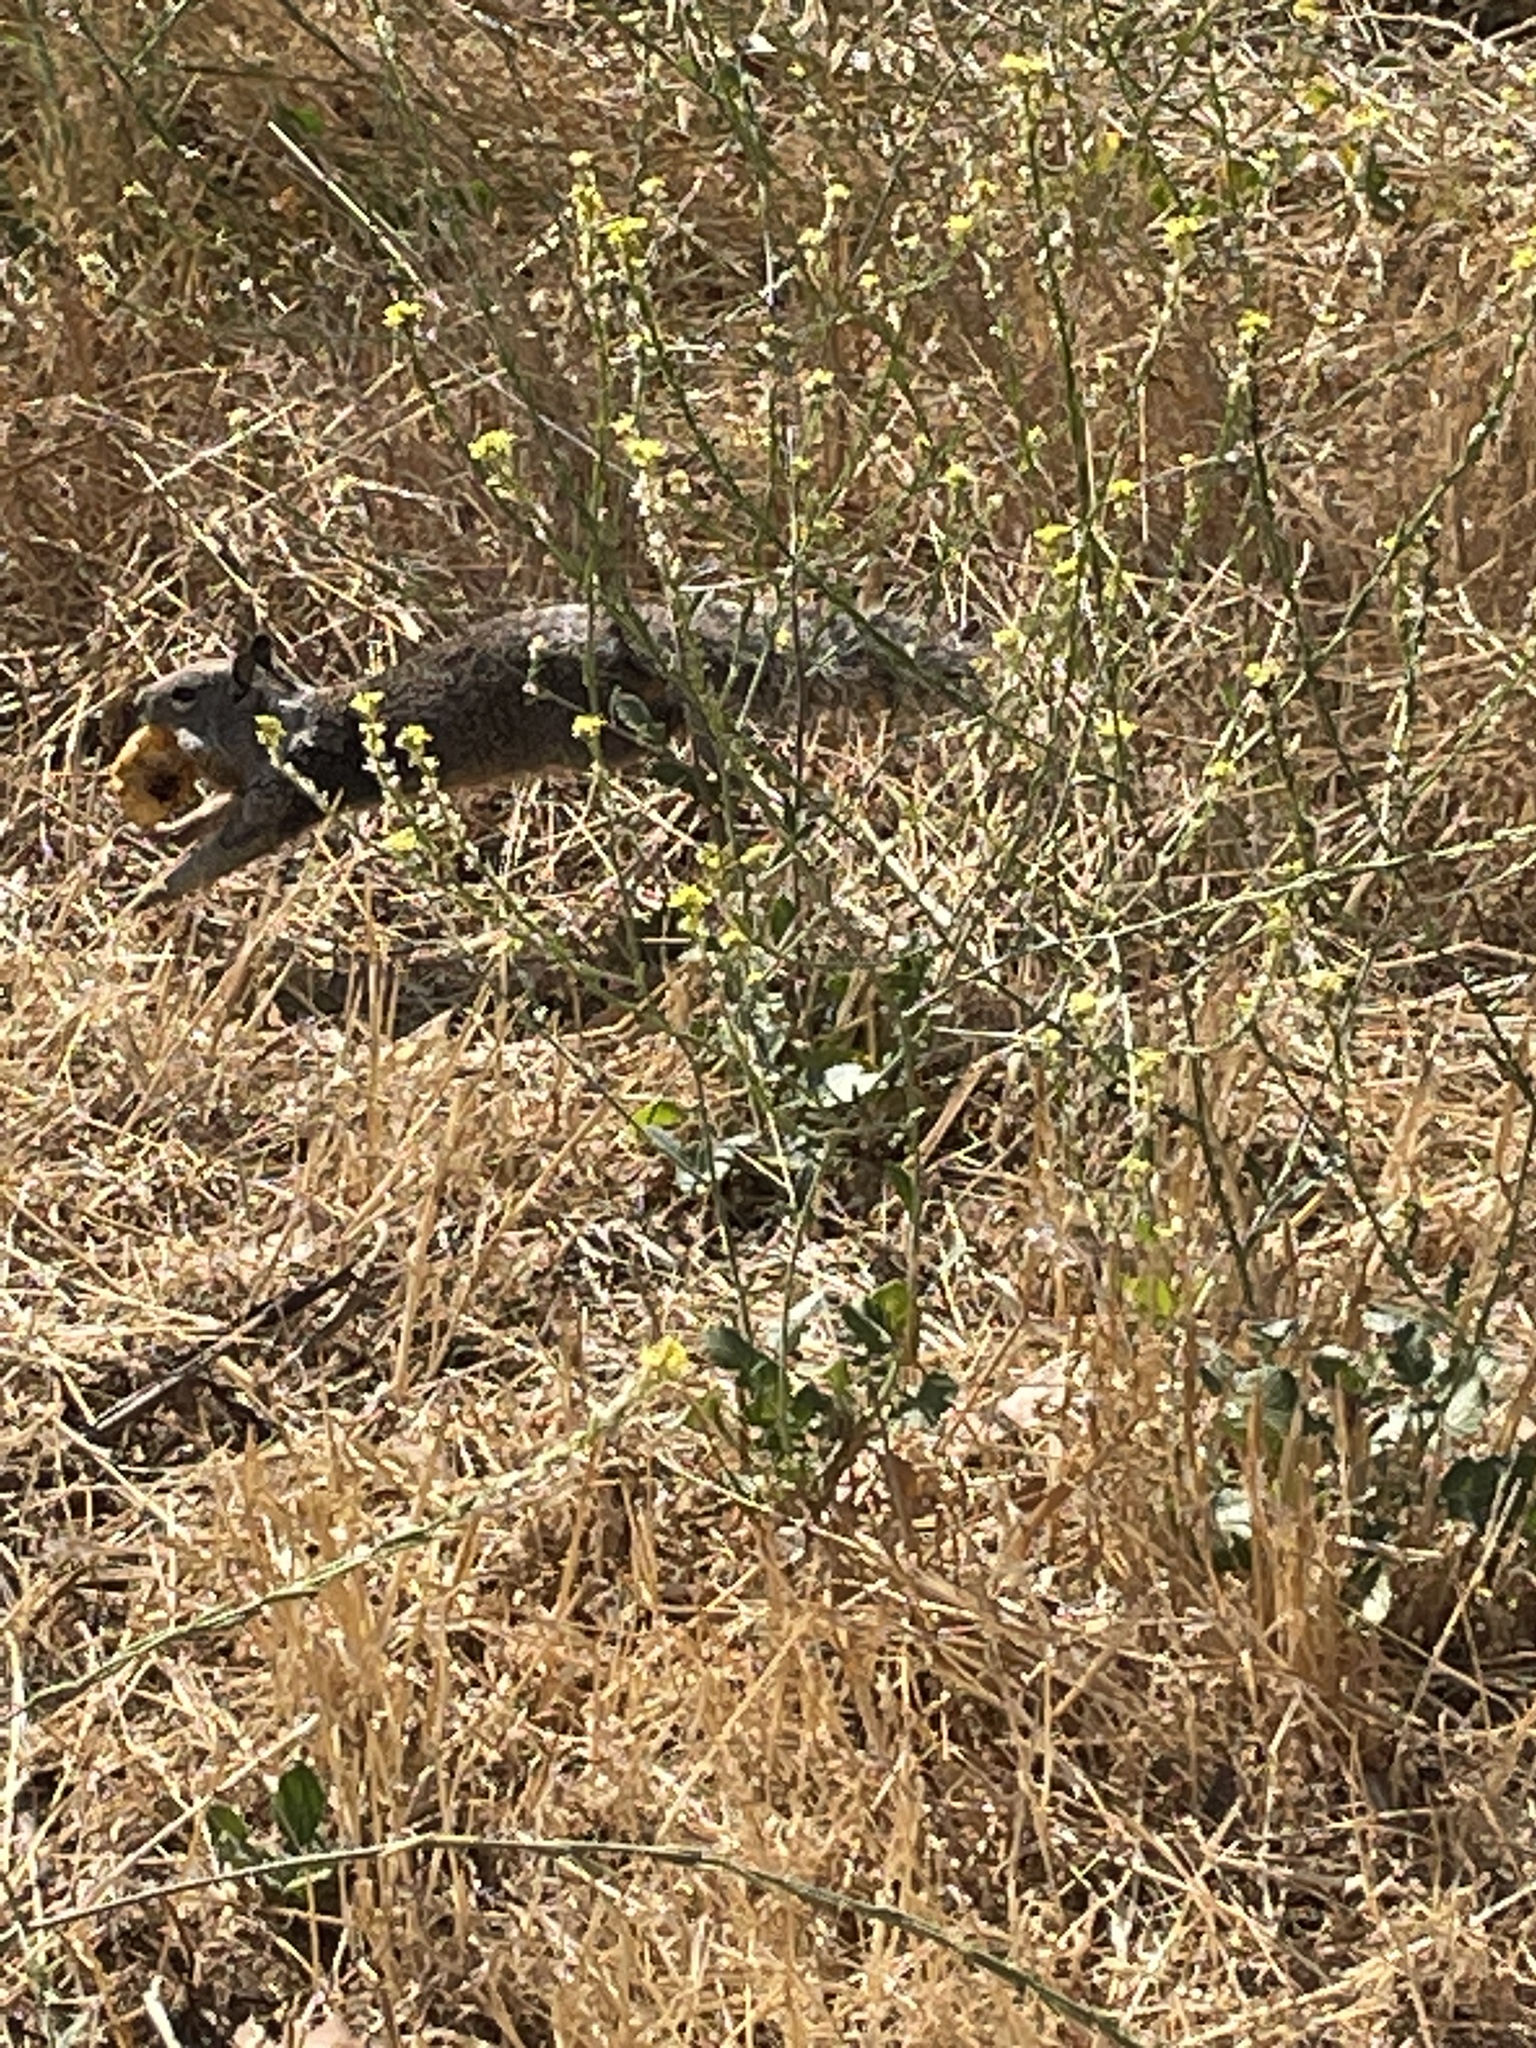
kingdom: Animalia
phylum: Chordata
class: Mammalia
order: Rodentia
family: Sciuridae
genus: Otospermophilus
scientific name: Otospermophilus beecheyi
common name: California ground squirrel
